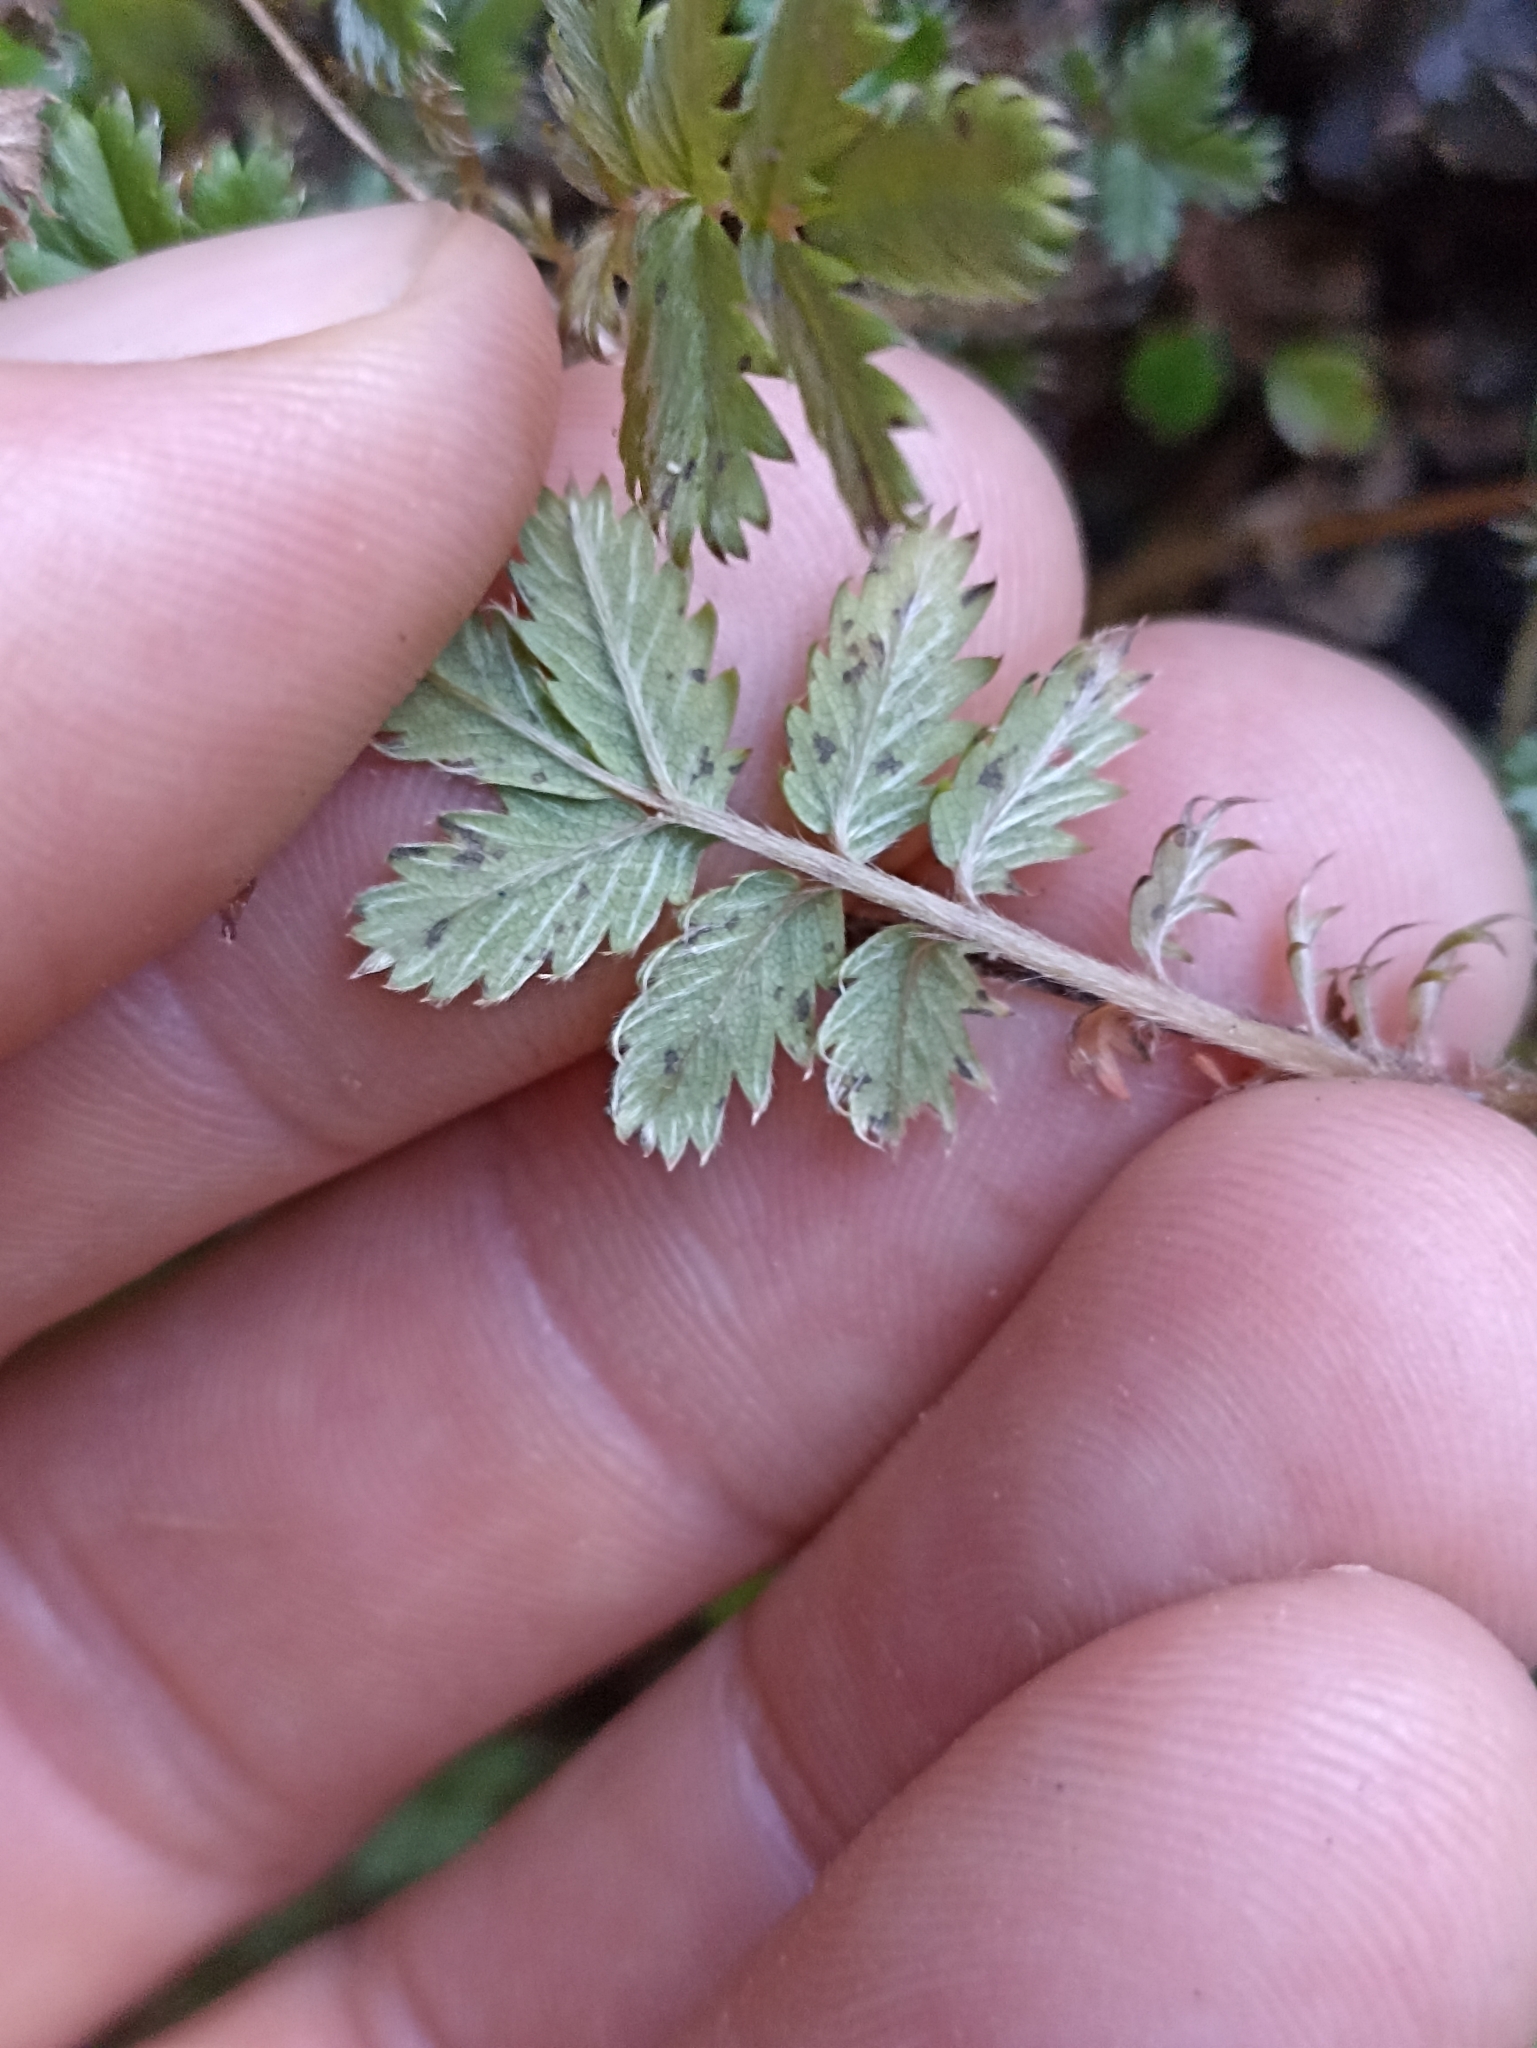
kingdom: Plantae
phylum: Tracheophyta
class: Magnoliopsida
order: Rosales
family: Rosaceae
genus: Acaena
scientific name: Acaena anserinifolia
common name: Bronze pirri-pirri-bur
